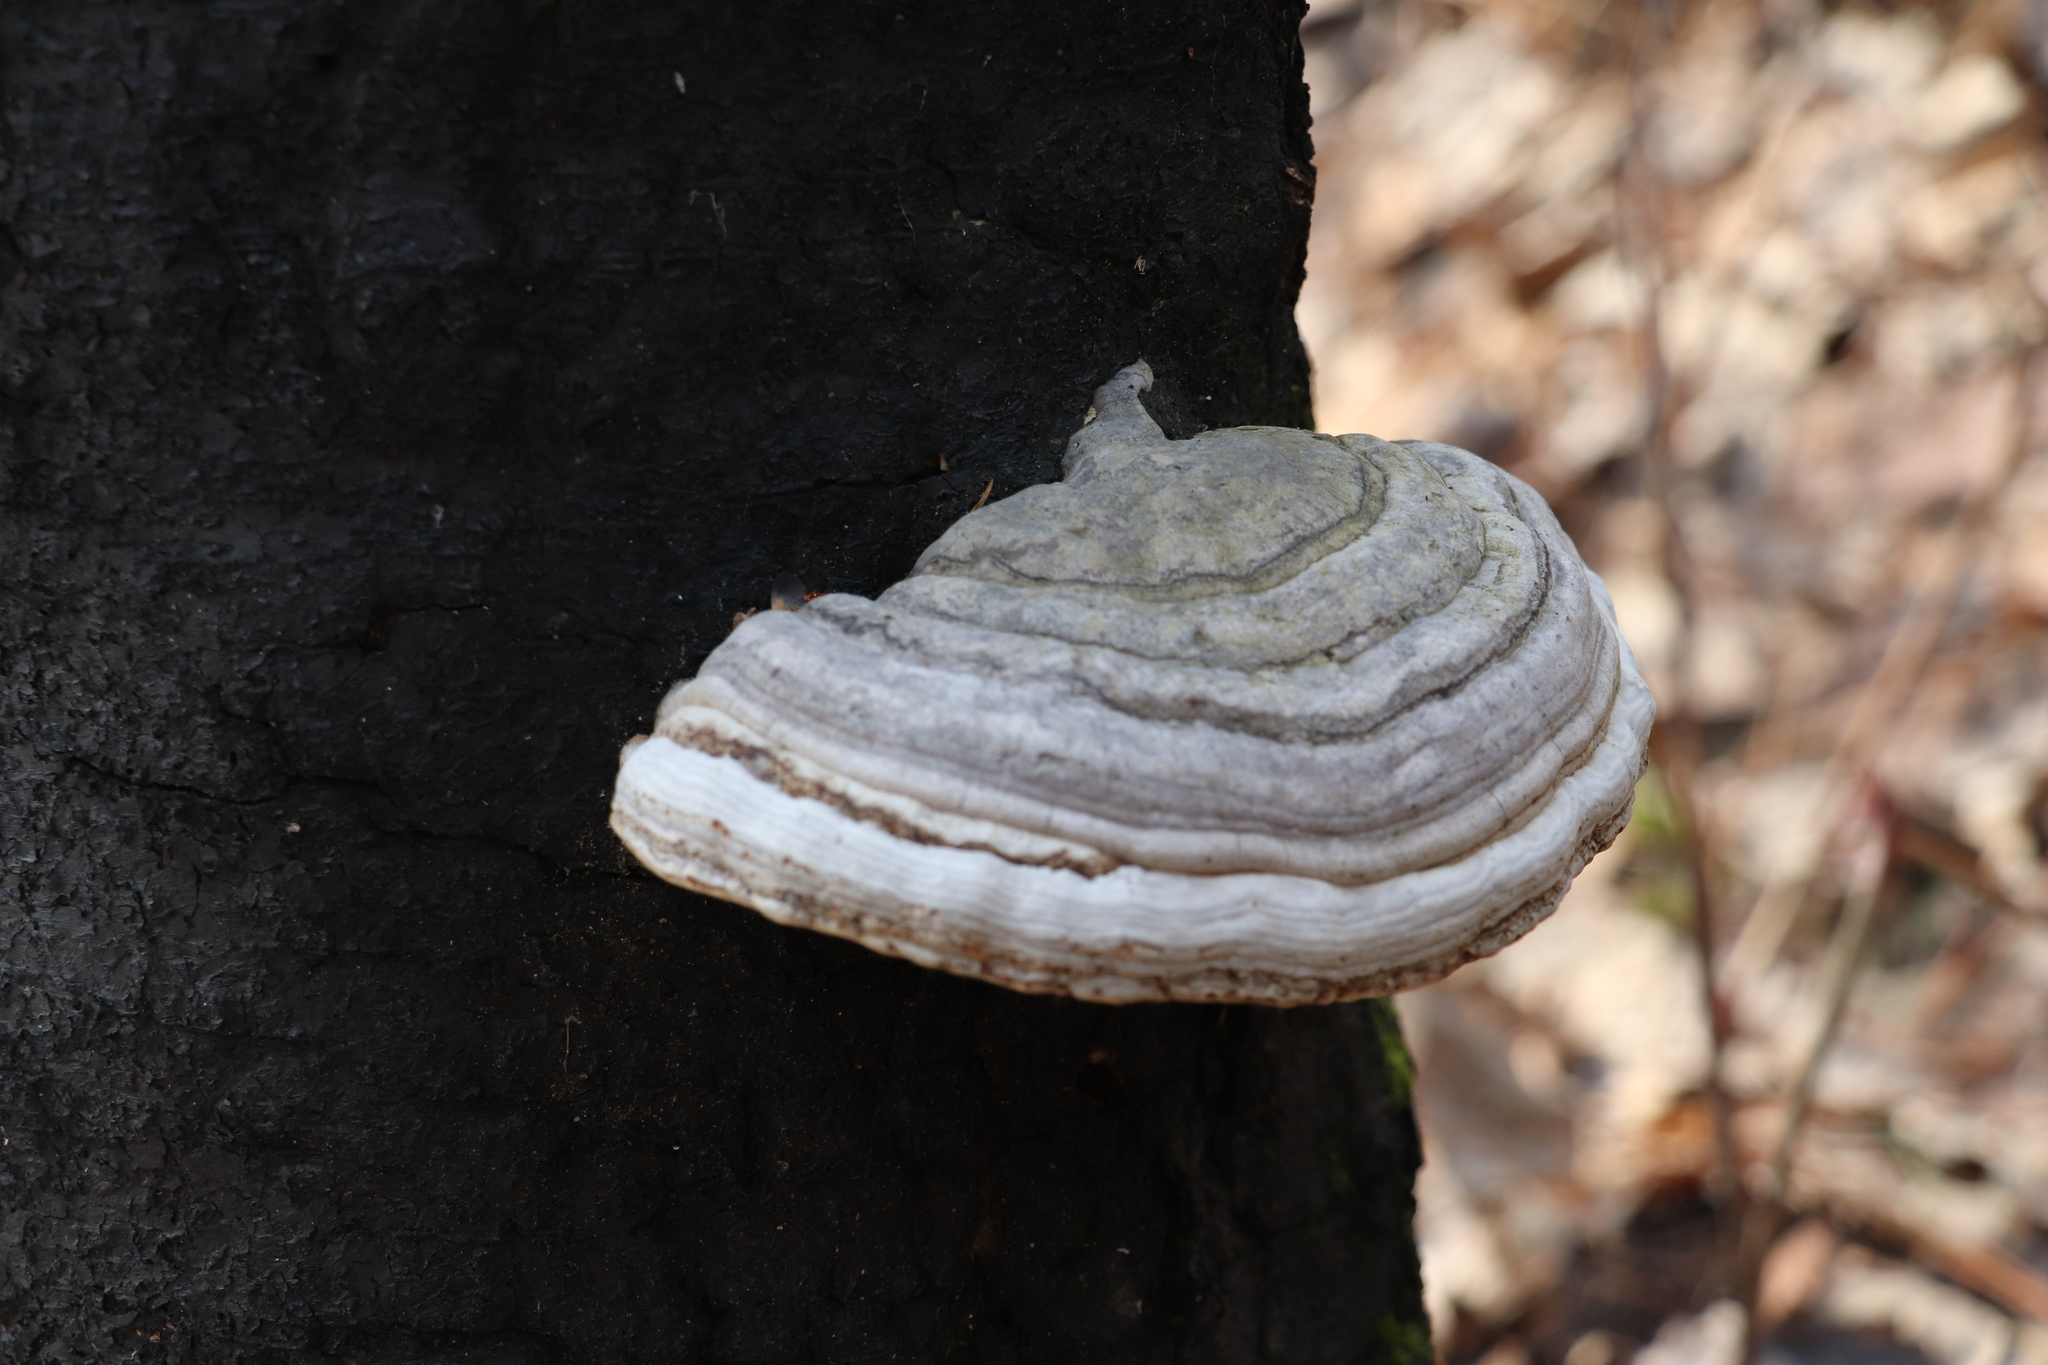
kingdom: Fungi
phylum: Basidiomycota
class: Agaricomycetes
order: Polyporales
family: Polyporaceae
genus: Fomes
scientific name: Fomes fomentarius
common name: Hoof fungus
